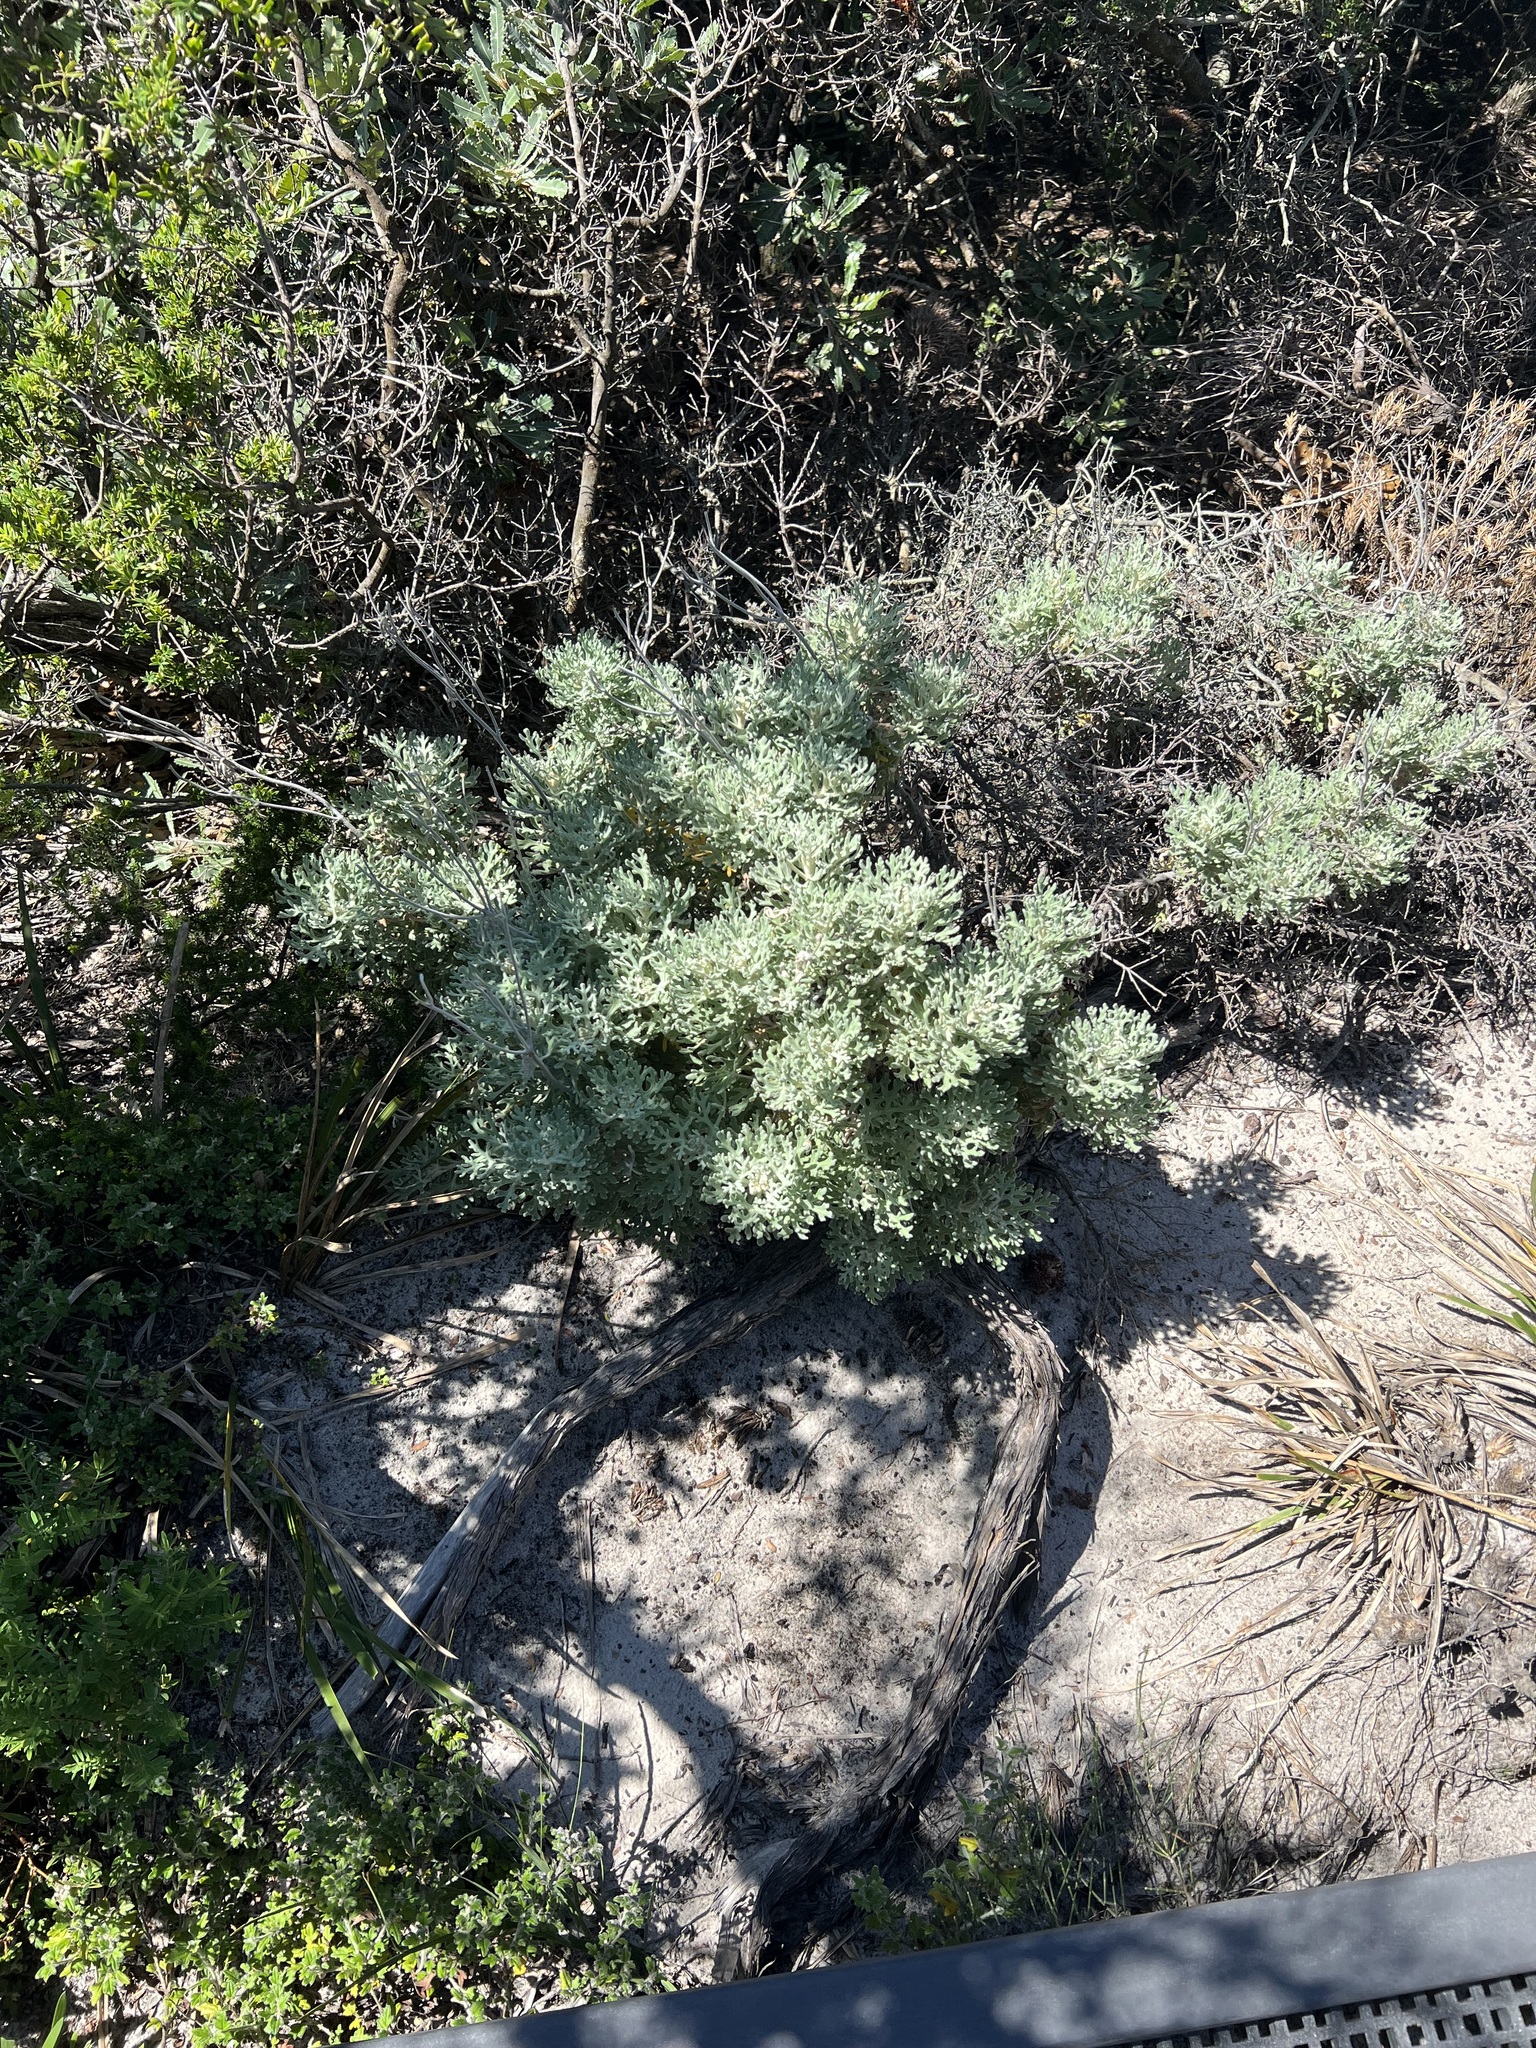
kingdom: Plantae
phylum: Tracheophyta
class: Magnoliopsida
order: Apiales
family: Apiaceae
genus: Actinotus
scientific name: Actinotus helianthi
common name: Flannel-flower
